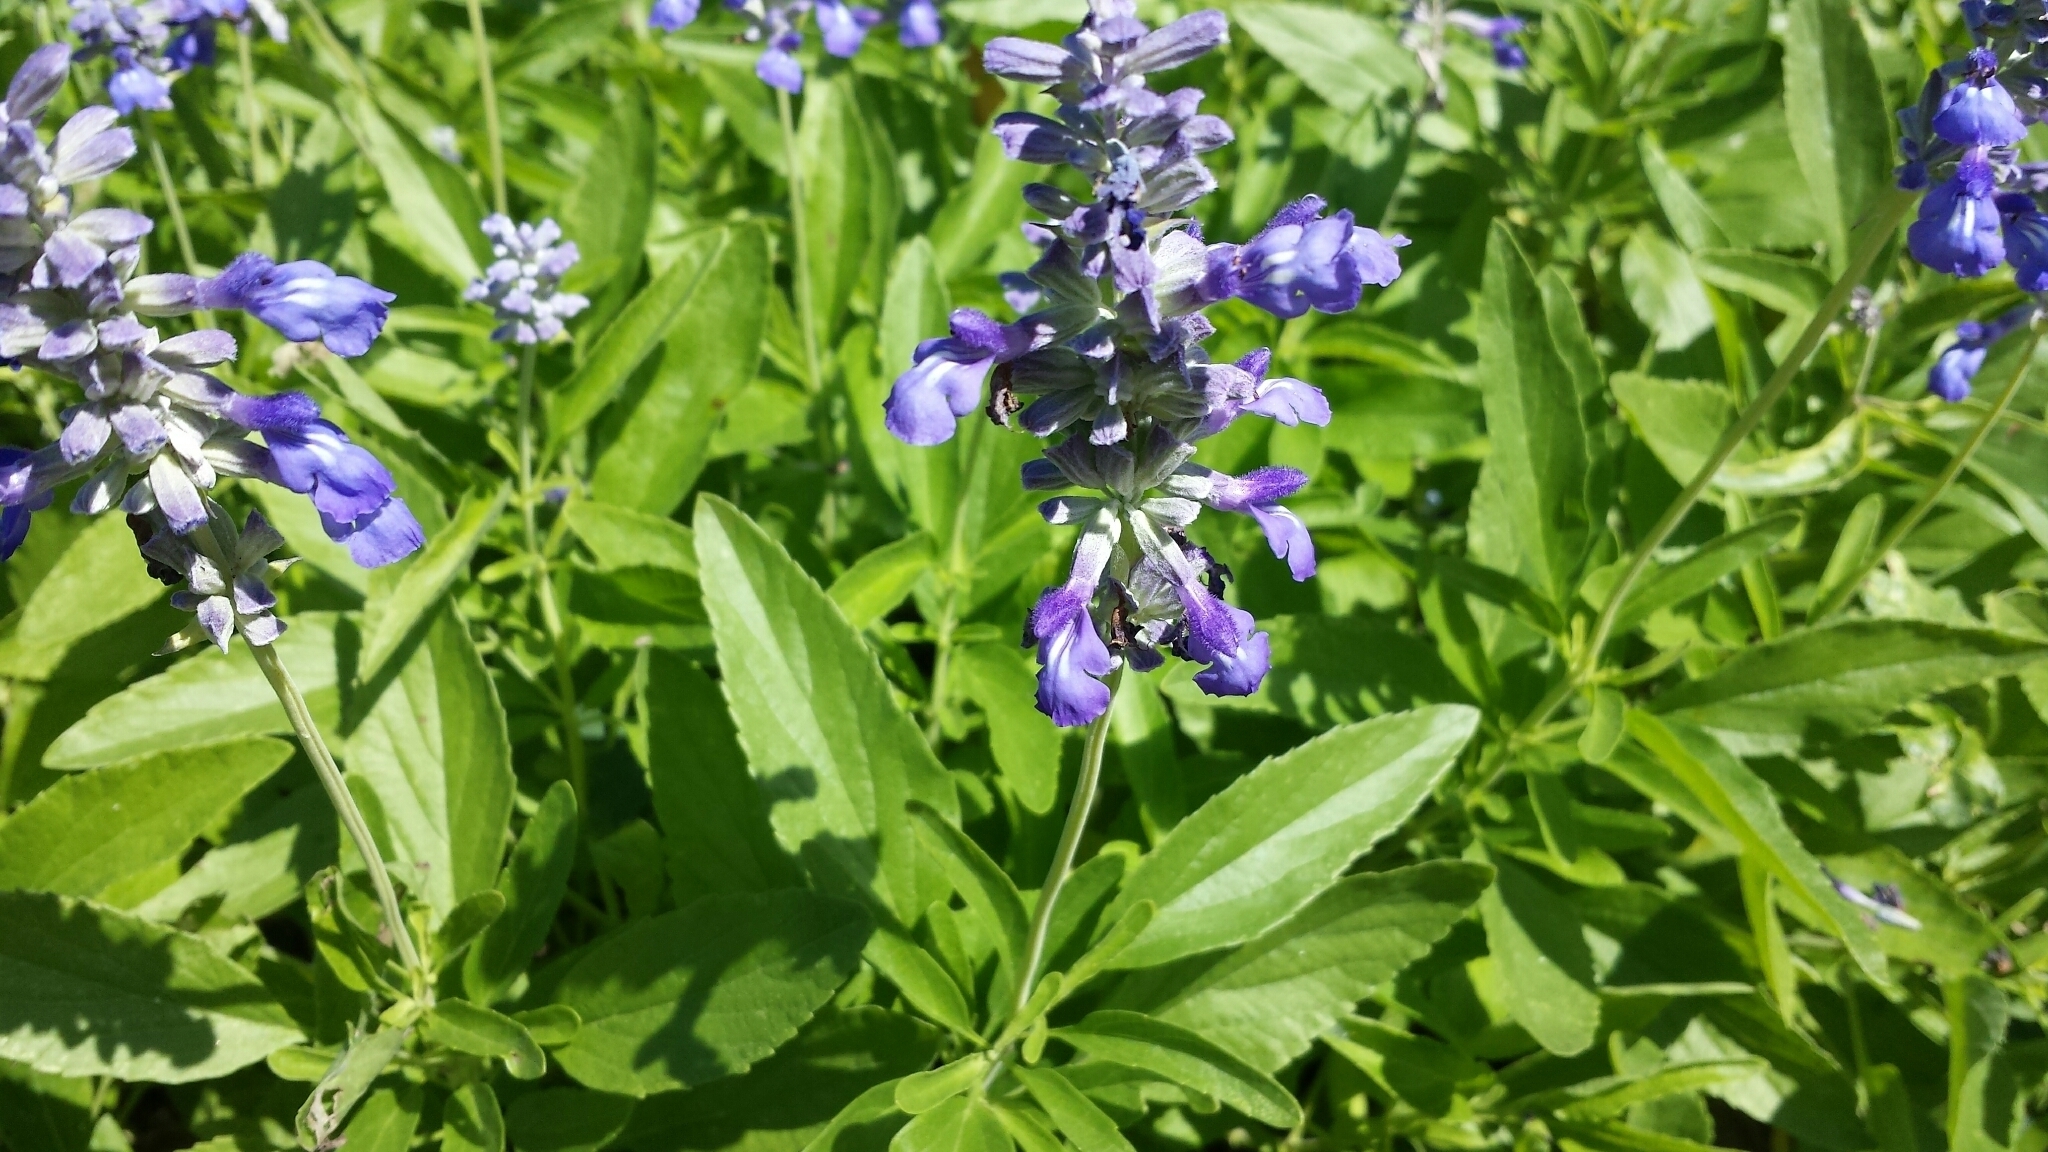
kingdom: Plantae
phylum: Tracheophyta
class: Magnoliopsida
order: Lamiales
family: Lamiaceae
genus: Salvia
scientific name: Salvia farinacea
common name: Mealy sage
